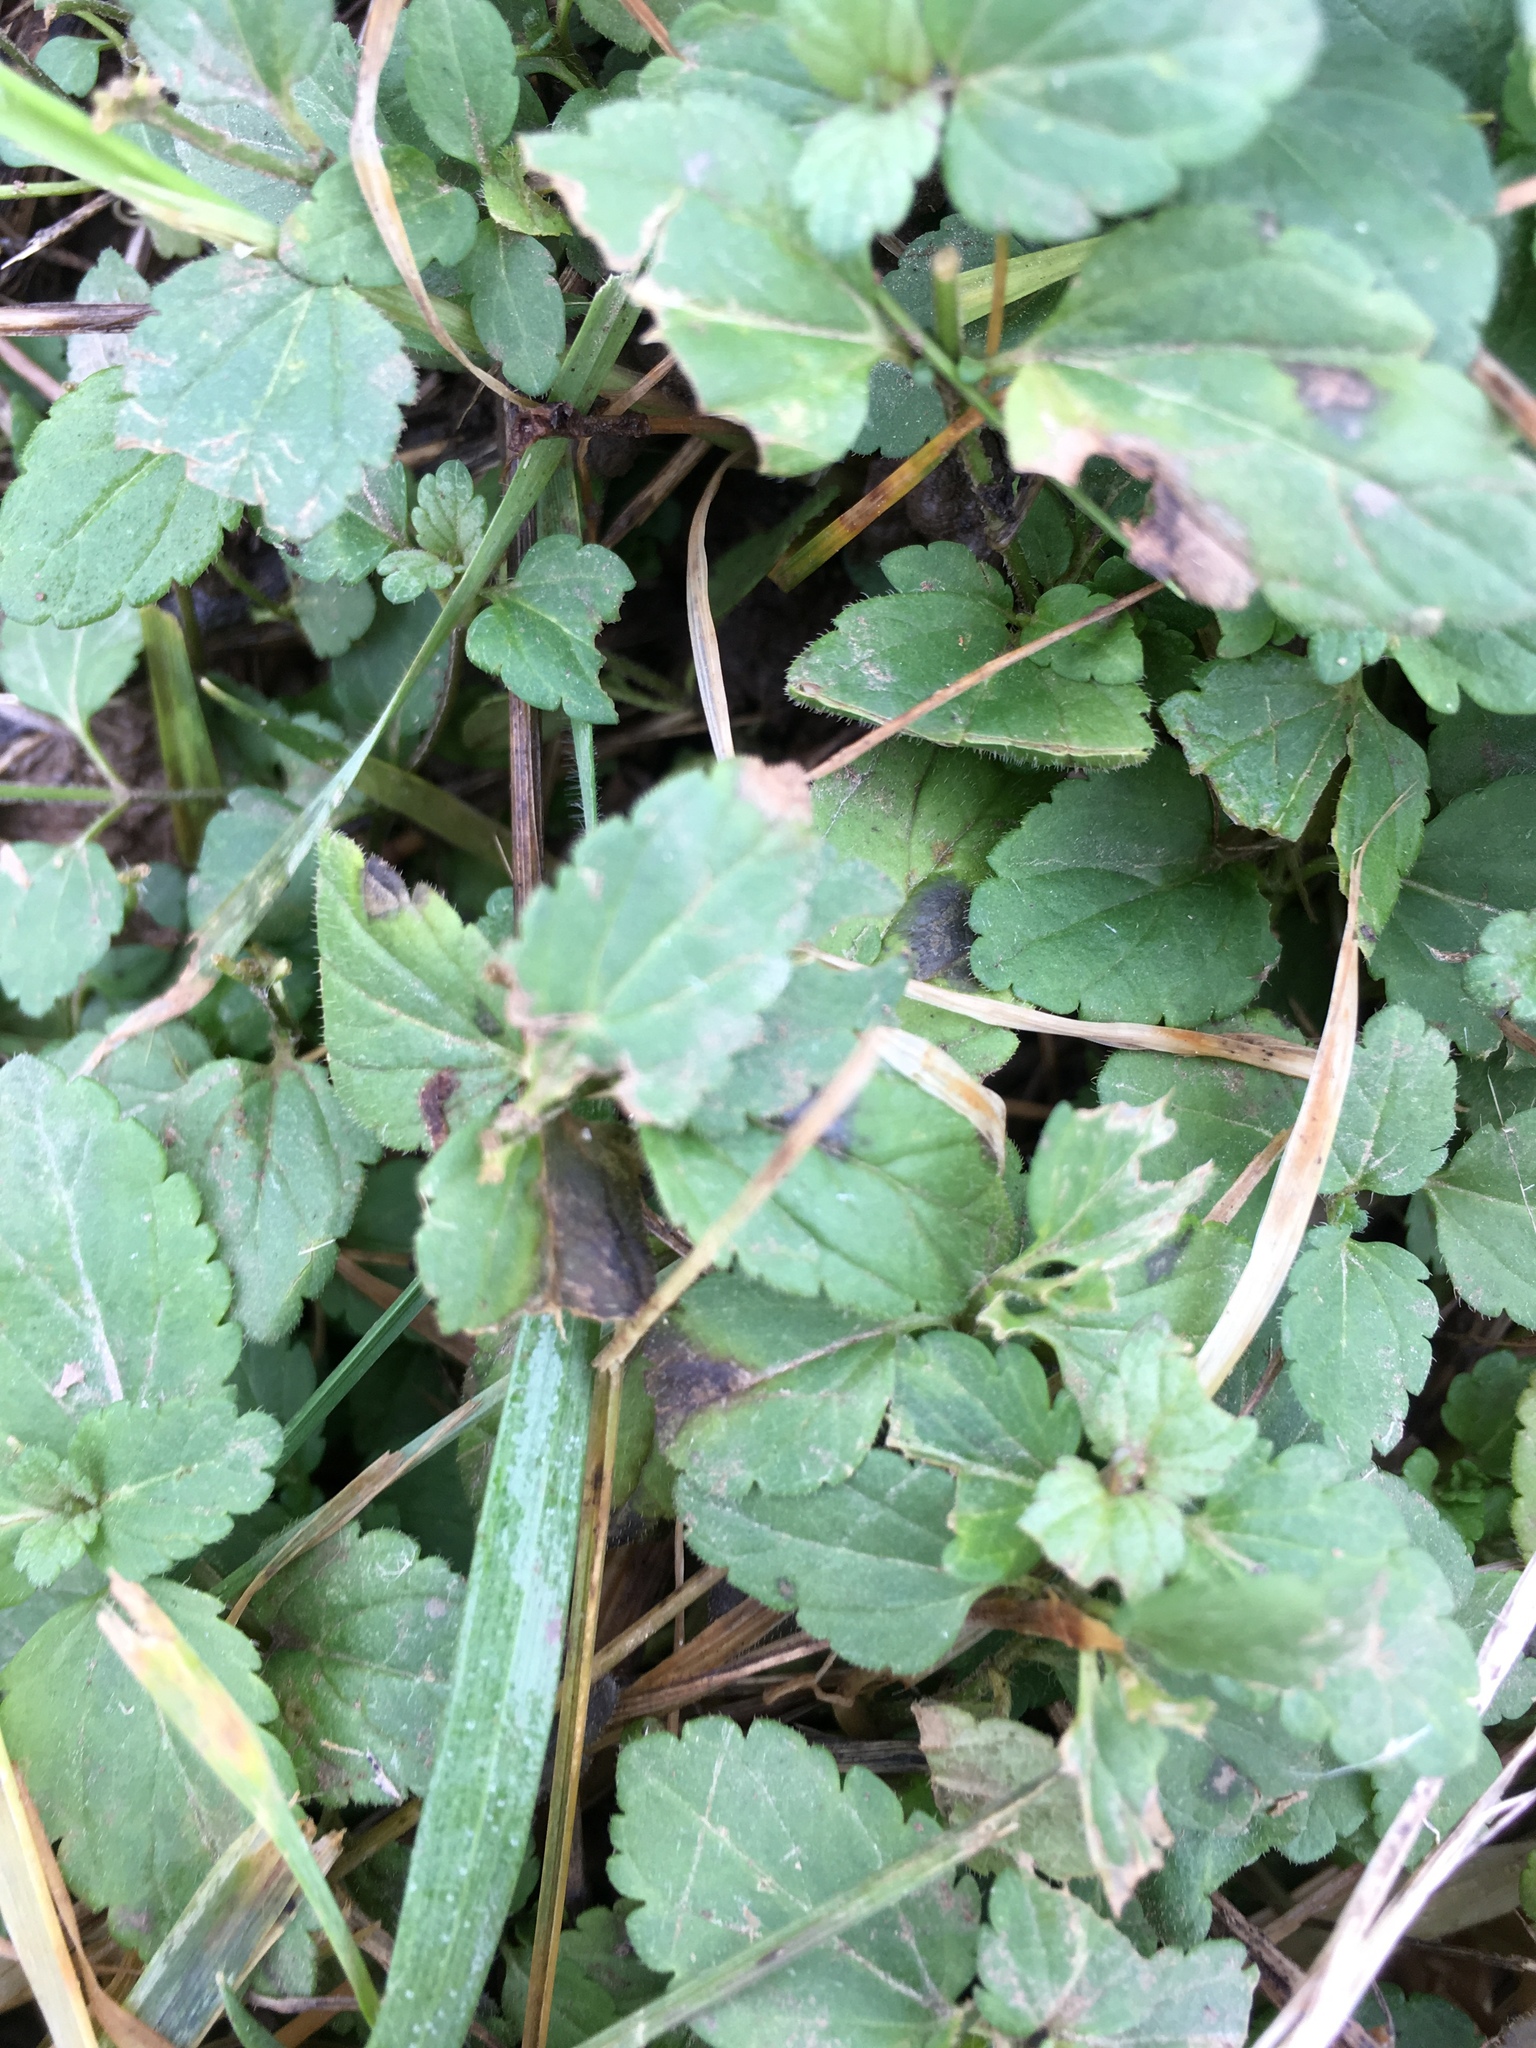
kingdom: Plantae
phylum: Tracheophyta
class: Magnoliopsida
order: Lamiales
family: Plantaginaceae
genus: Veronica
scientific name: Veronica chamaedrys
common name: Germander speedwell
